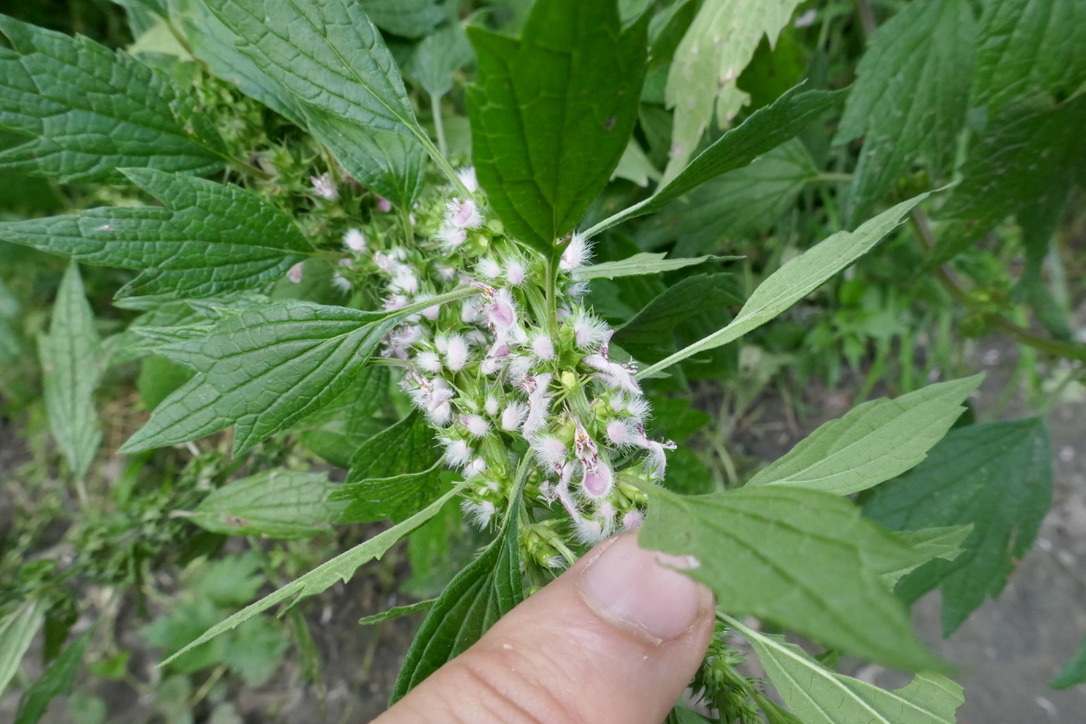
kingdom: Animalia
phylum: Arthropoda
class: Arachnida
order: Araneae
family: Thomisidae
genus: Ebrechtella
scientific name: Ebrechtella tricuspidata
